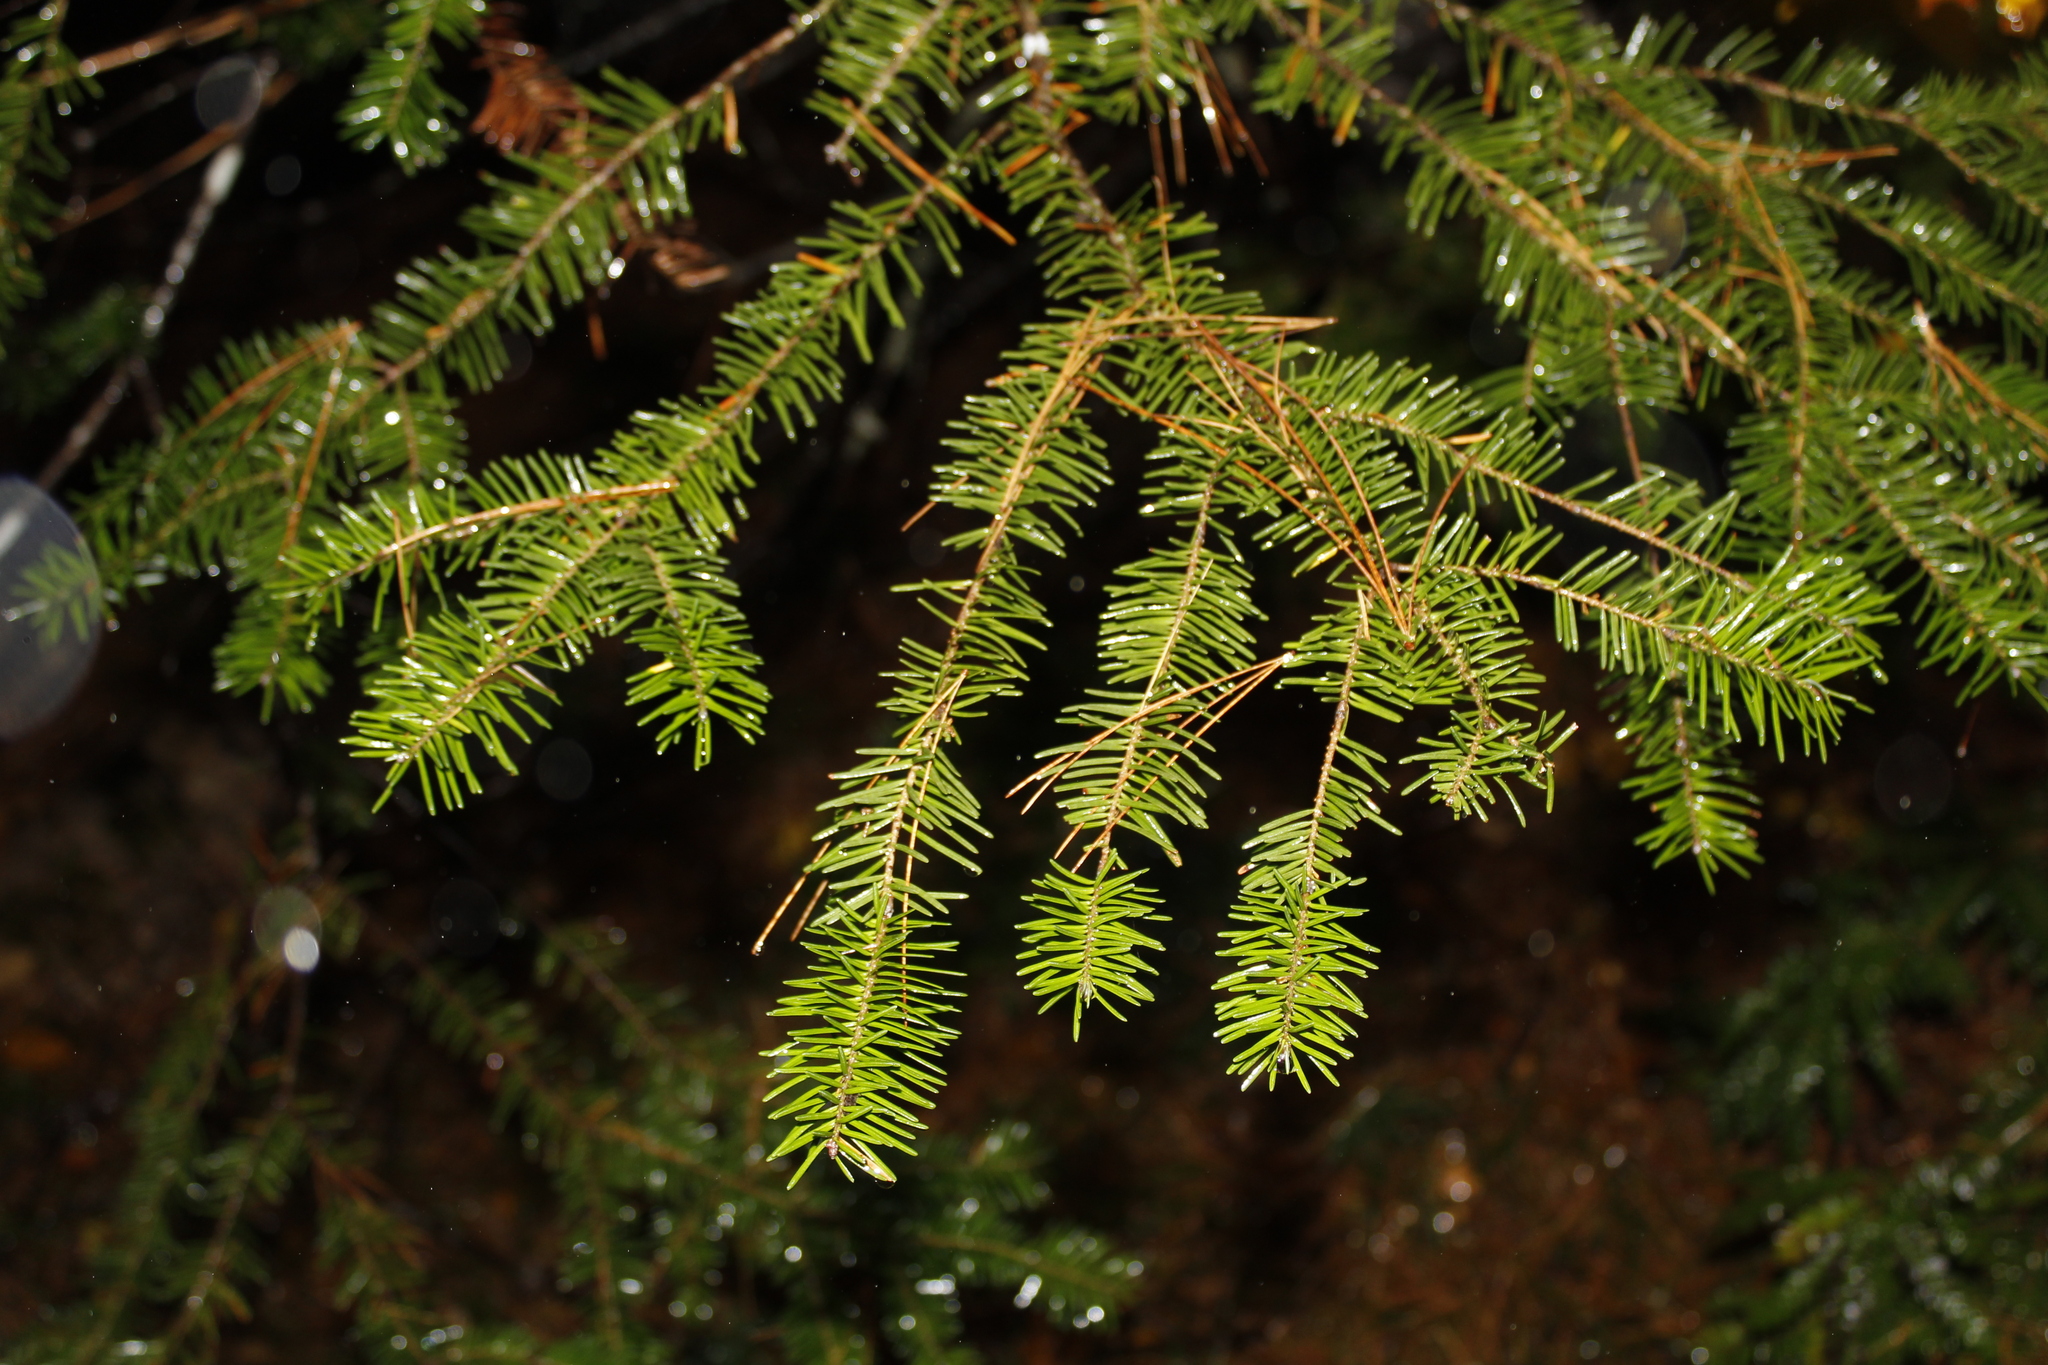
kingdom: Plantae
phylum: Tracheophyta
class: Pinopsida
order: Pinales
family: Pinaceae
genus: Abies
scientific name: Abies balsamea
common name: Balsam fir
